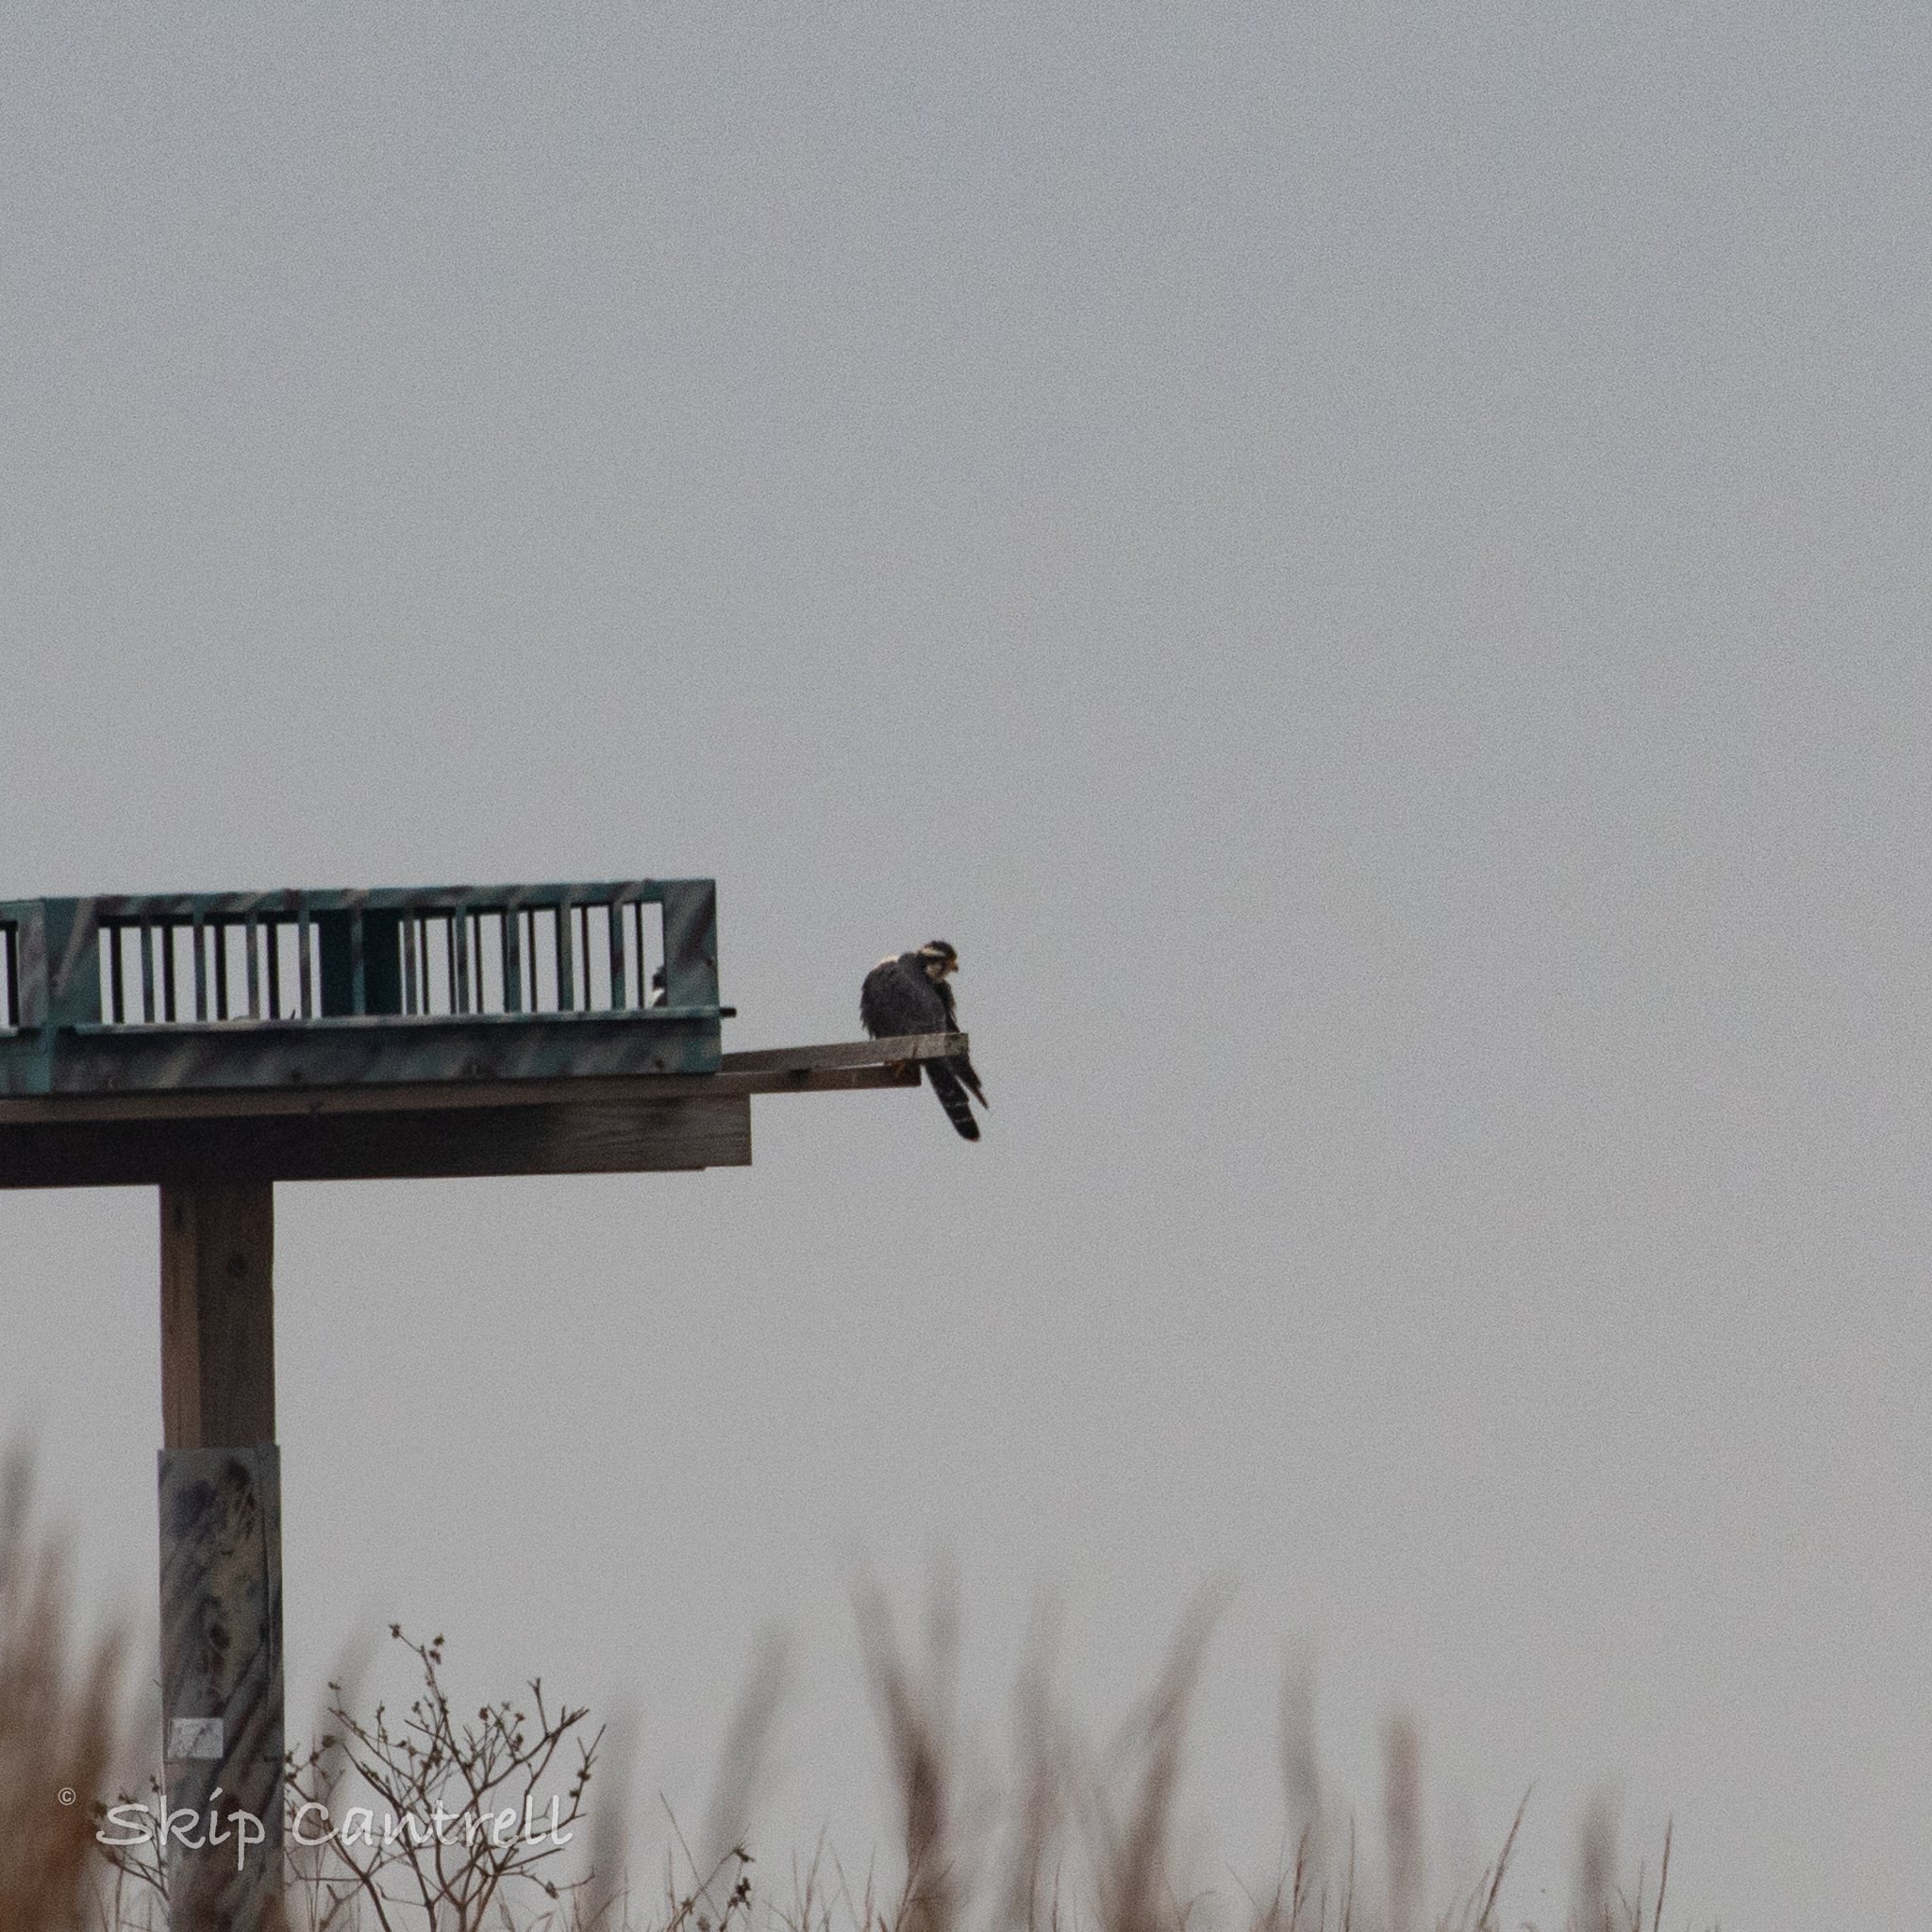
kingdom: Animalia
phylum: Chordata
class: Aves
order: Falconiformes
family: Falconidae
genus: Falco
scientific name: Falco femoralis
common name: Aplomado falcon
